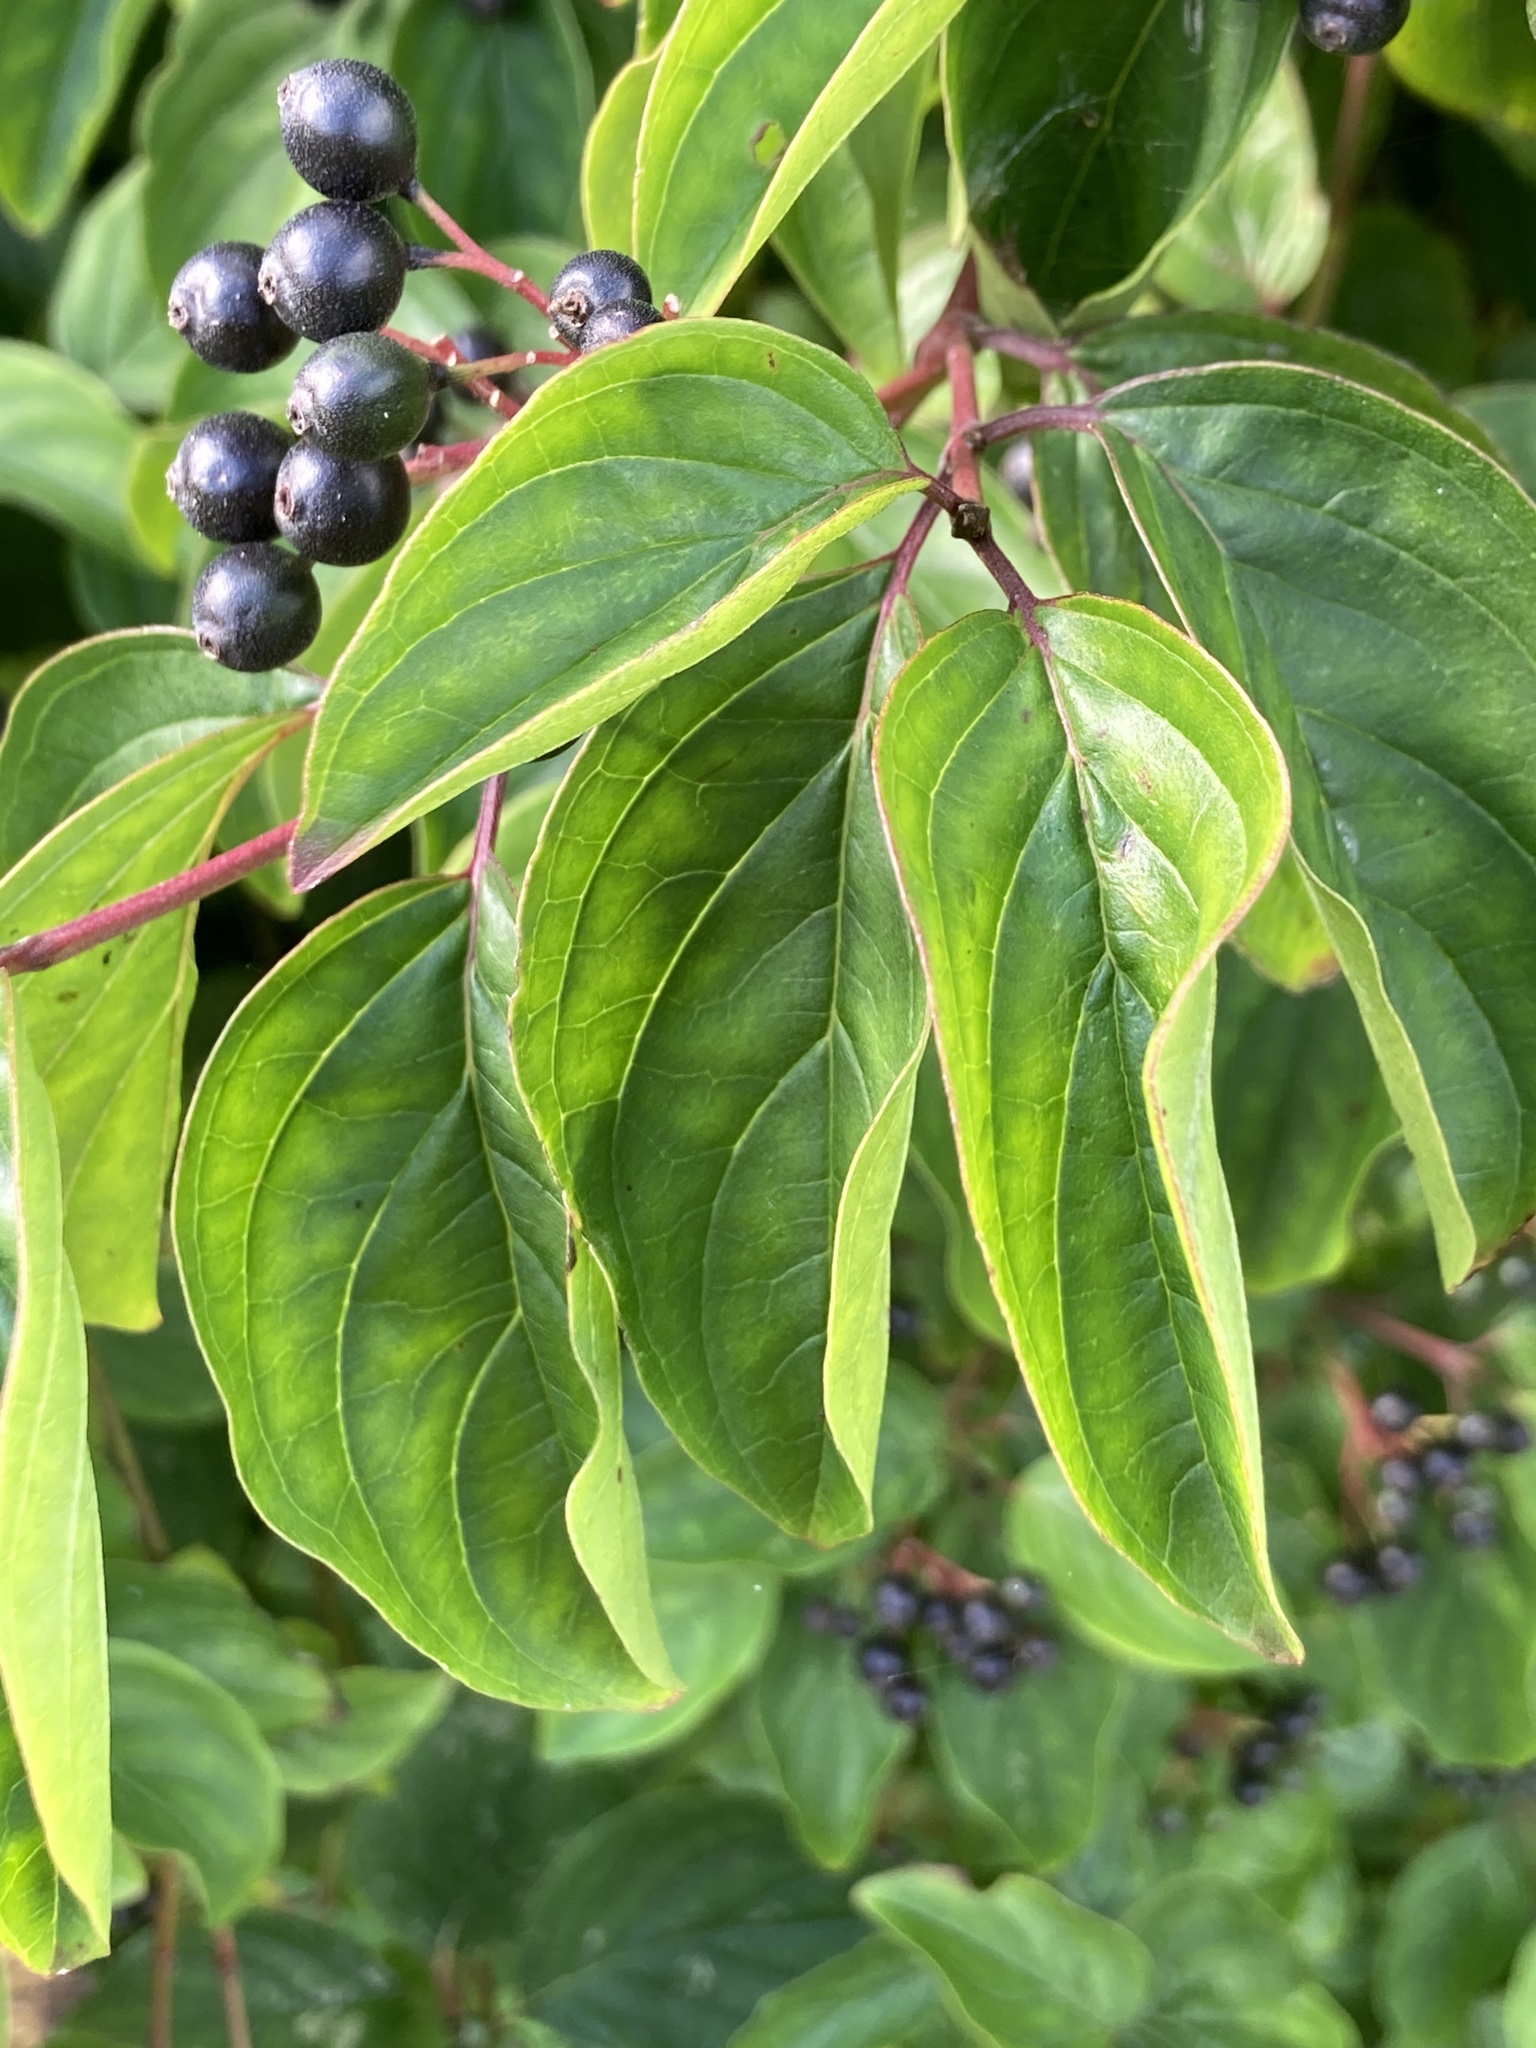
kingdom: Plantae
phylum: Tracheophyta
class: Magnoliopsida
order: Cornales
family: Cornaceae
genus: Cornus
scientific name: Cornus sanguinea
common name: Dogwood
